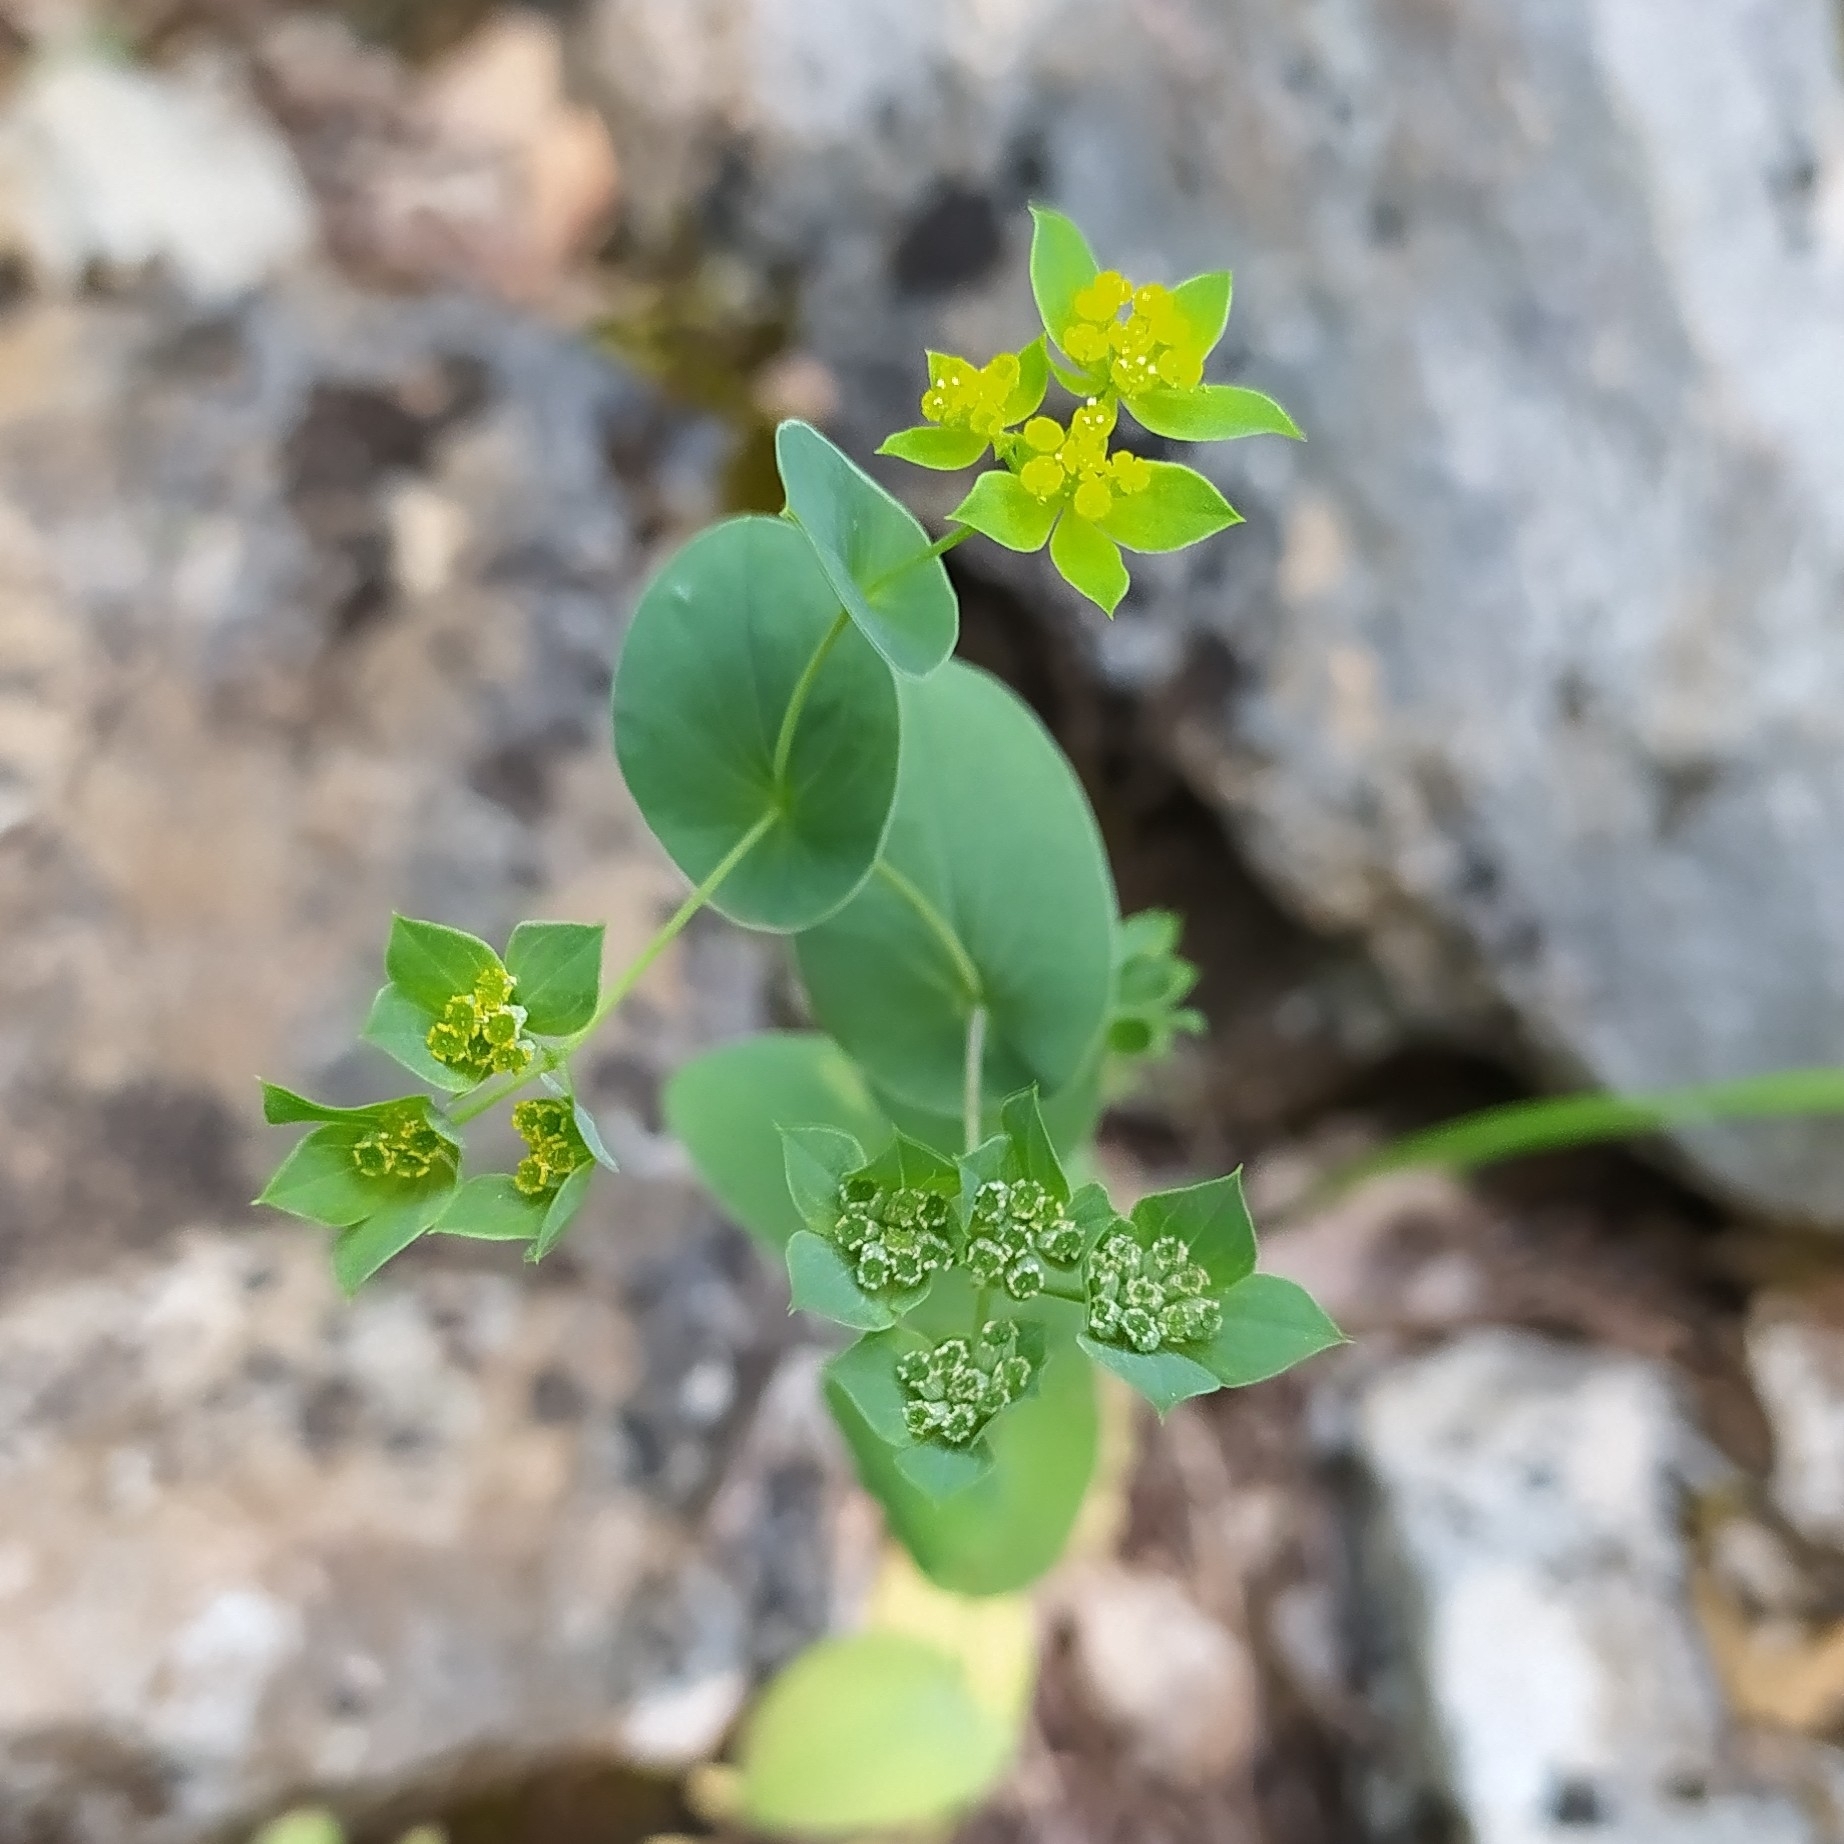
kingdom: Plantae
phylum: Tracheophyta
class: Magnoliopsida
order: Apiales
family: Apiaceae
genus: Bupleurum
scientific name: Bupleurum rotundifolium
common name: Thorow-wax
